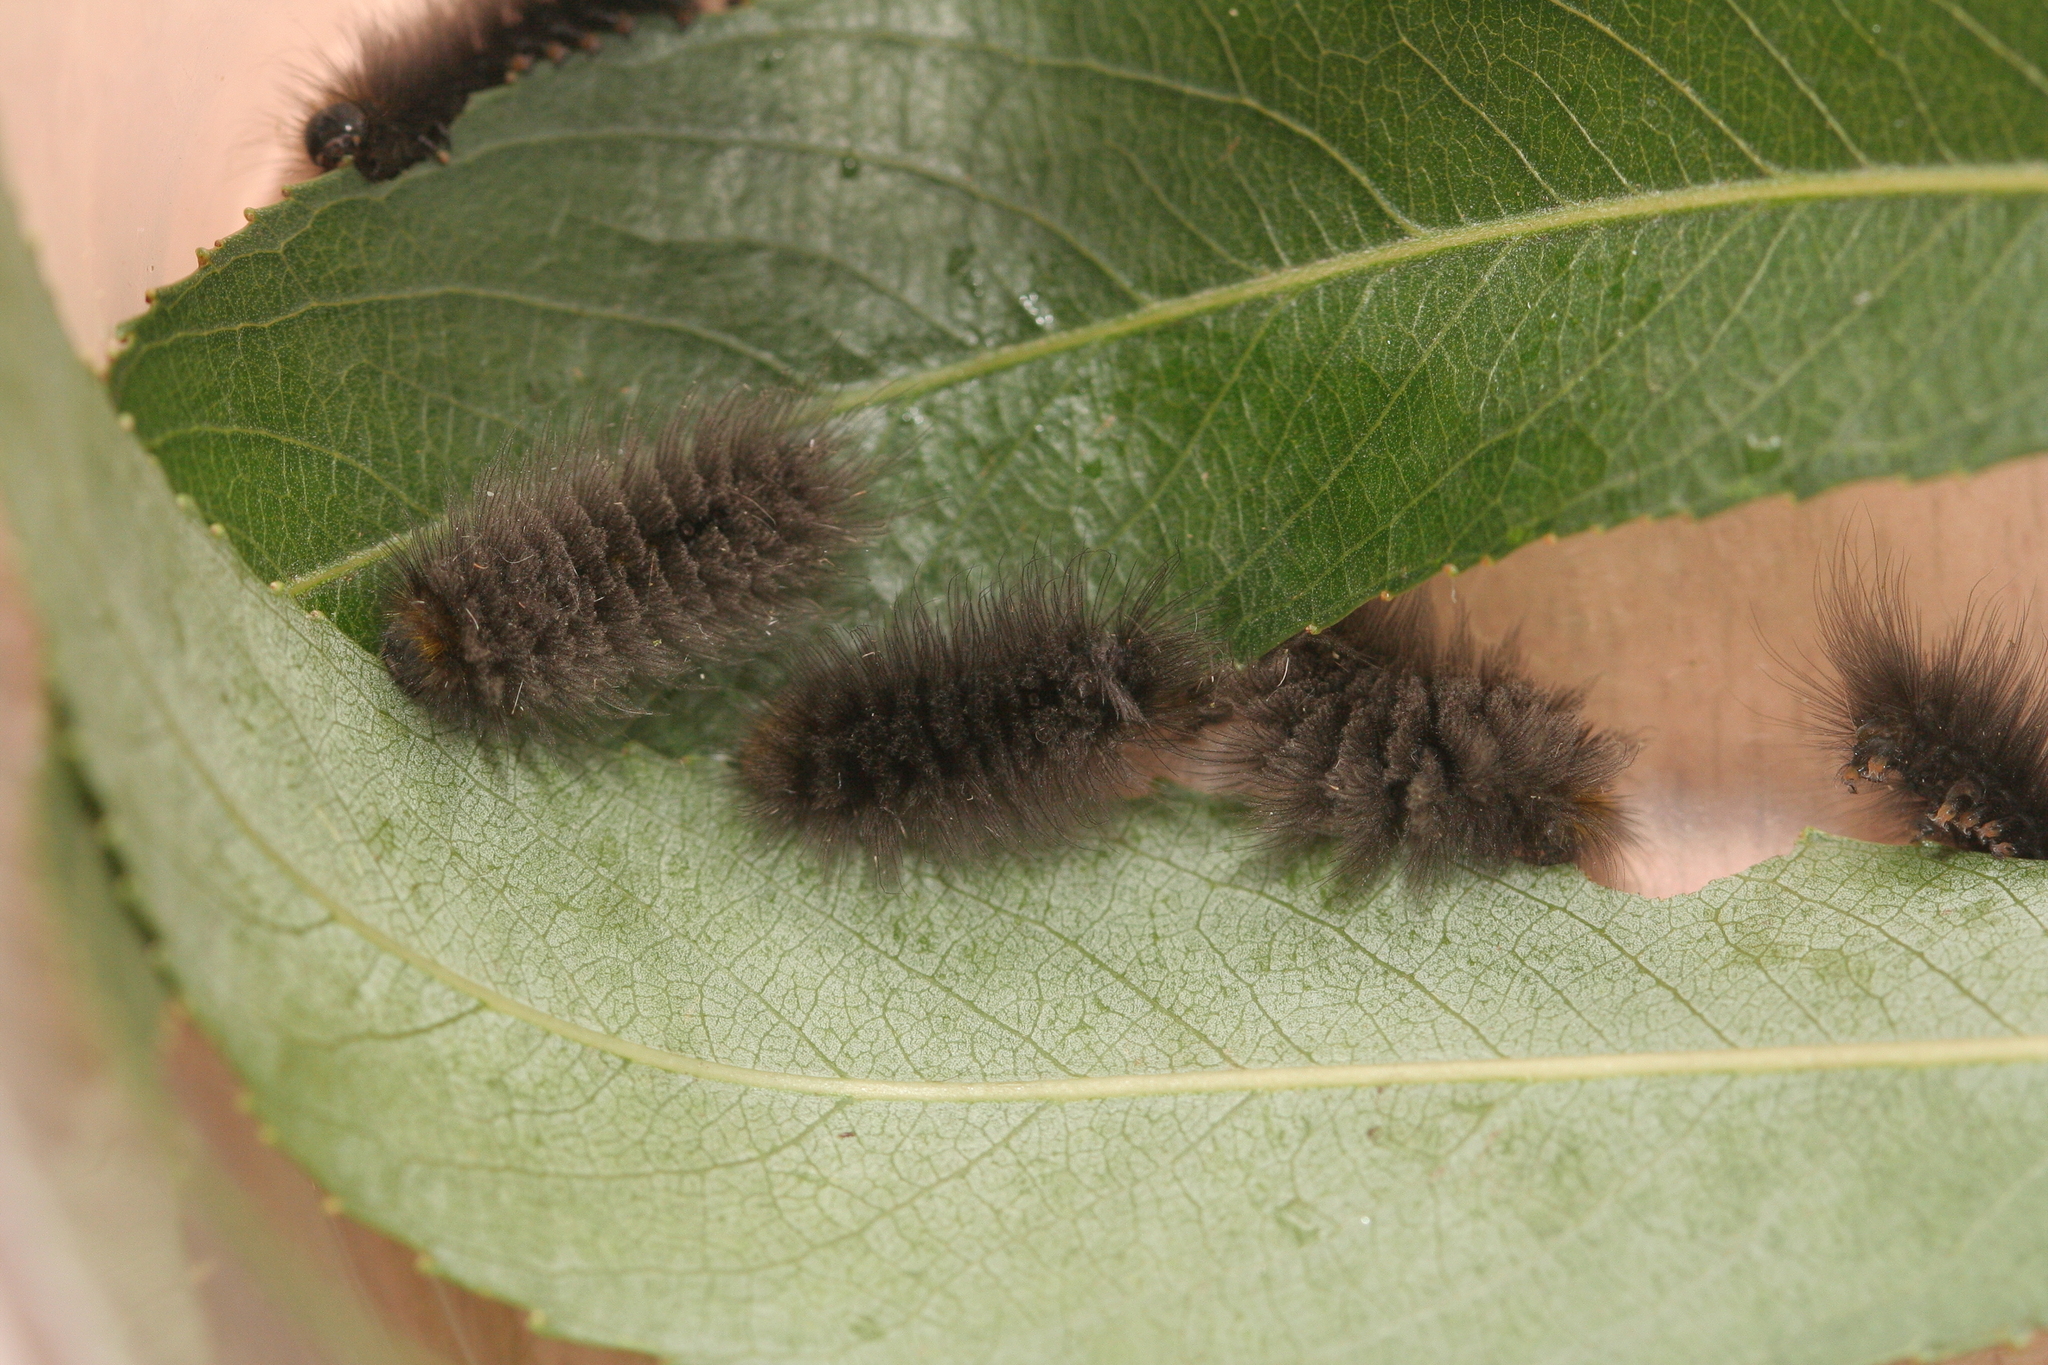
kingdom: Animalia
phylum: Arthropoda
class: Insecta
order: Lepidoptera
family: Erebidae
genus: Gynaephora
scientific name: Gynaephora
